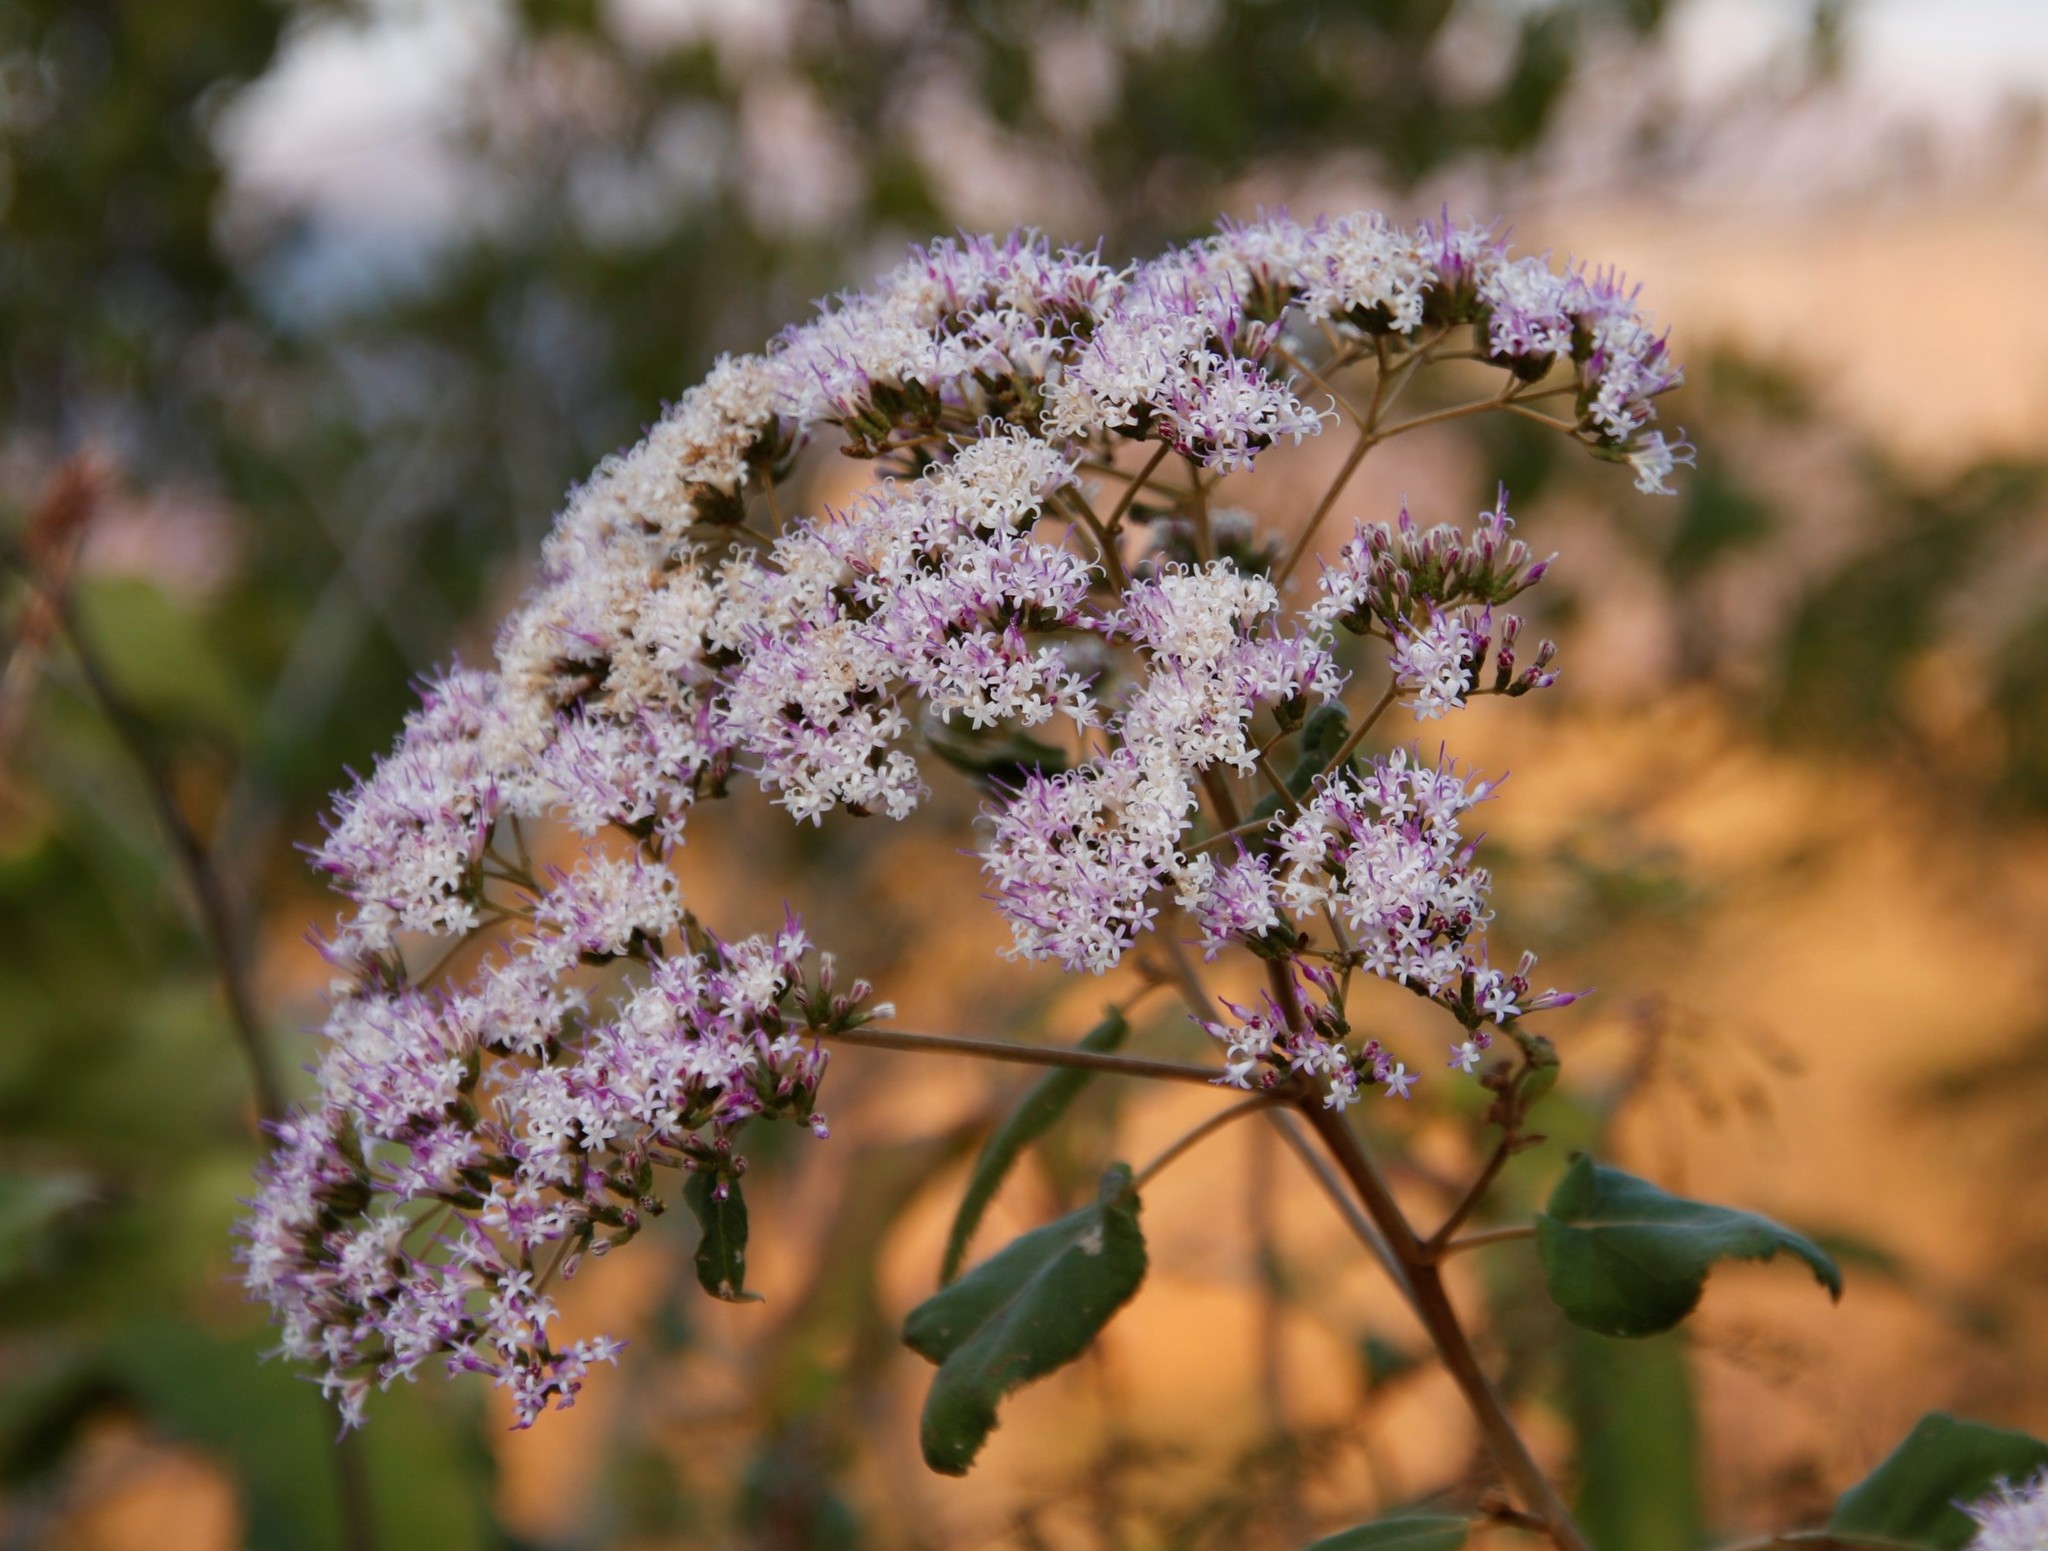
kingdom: Plantae
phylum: Tracheophyta
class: Magnoliopsida
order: Asterales
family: Asteraceae
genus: Gymnanthemum
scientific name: Gymnanthemum myrianthum
